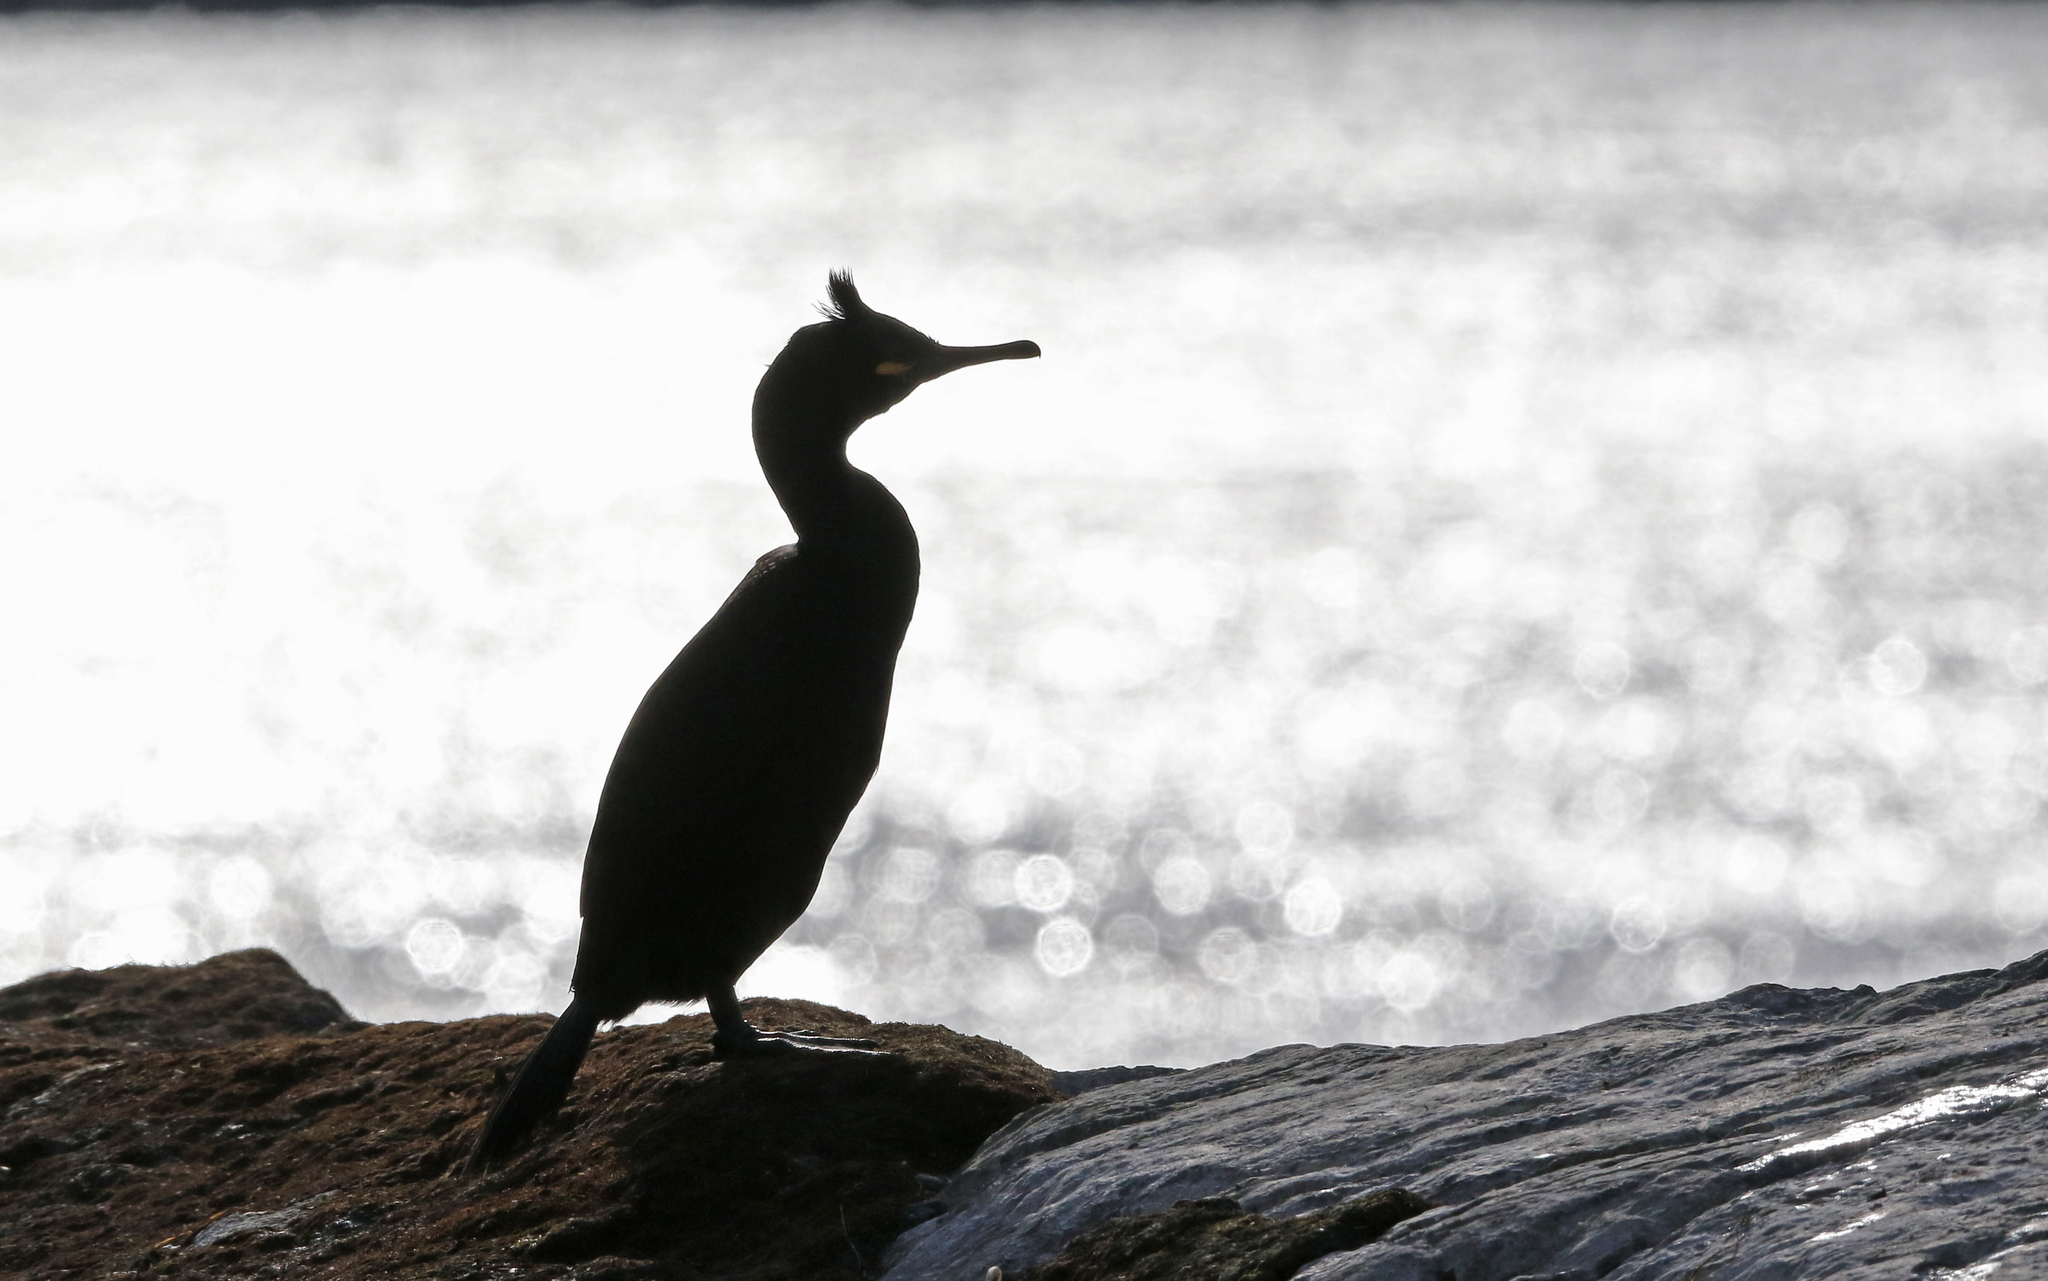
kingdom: Animalia
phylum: Chordata
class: Aves
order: Suliformes
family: Phalacrocoracidae
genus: Phalacrocorax
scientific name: Phalacrocorax aristotelis
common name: European shag
